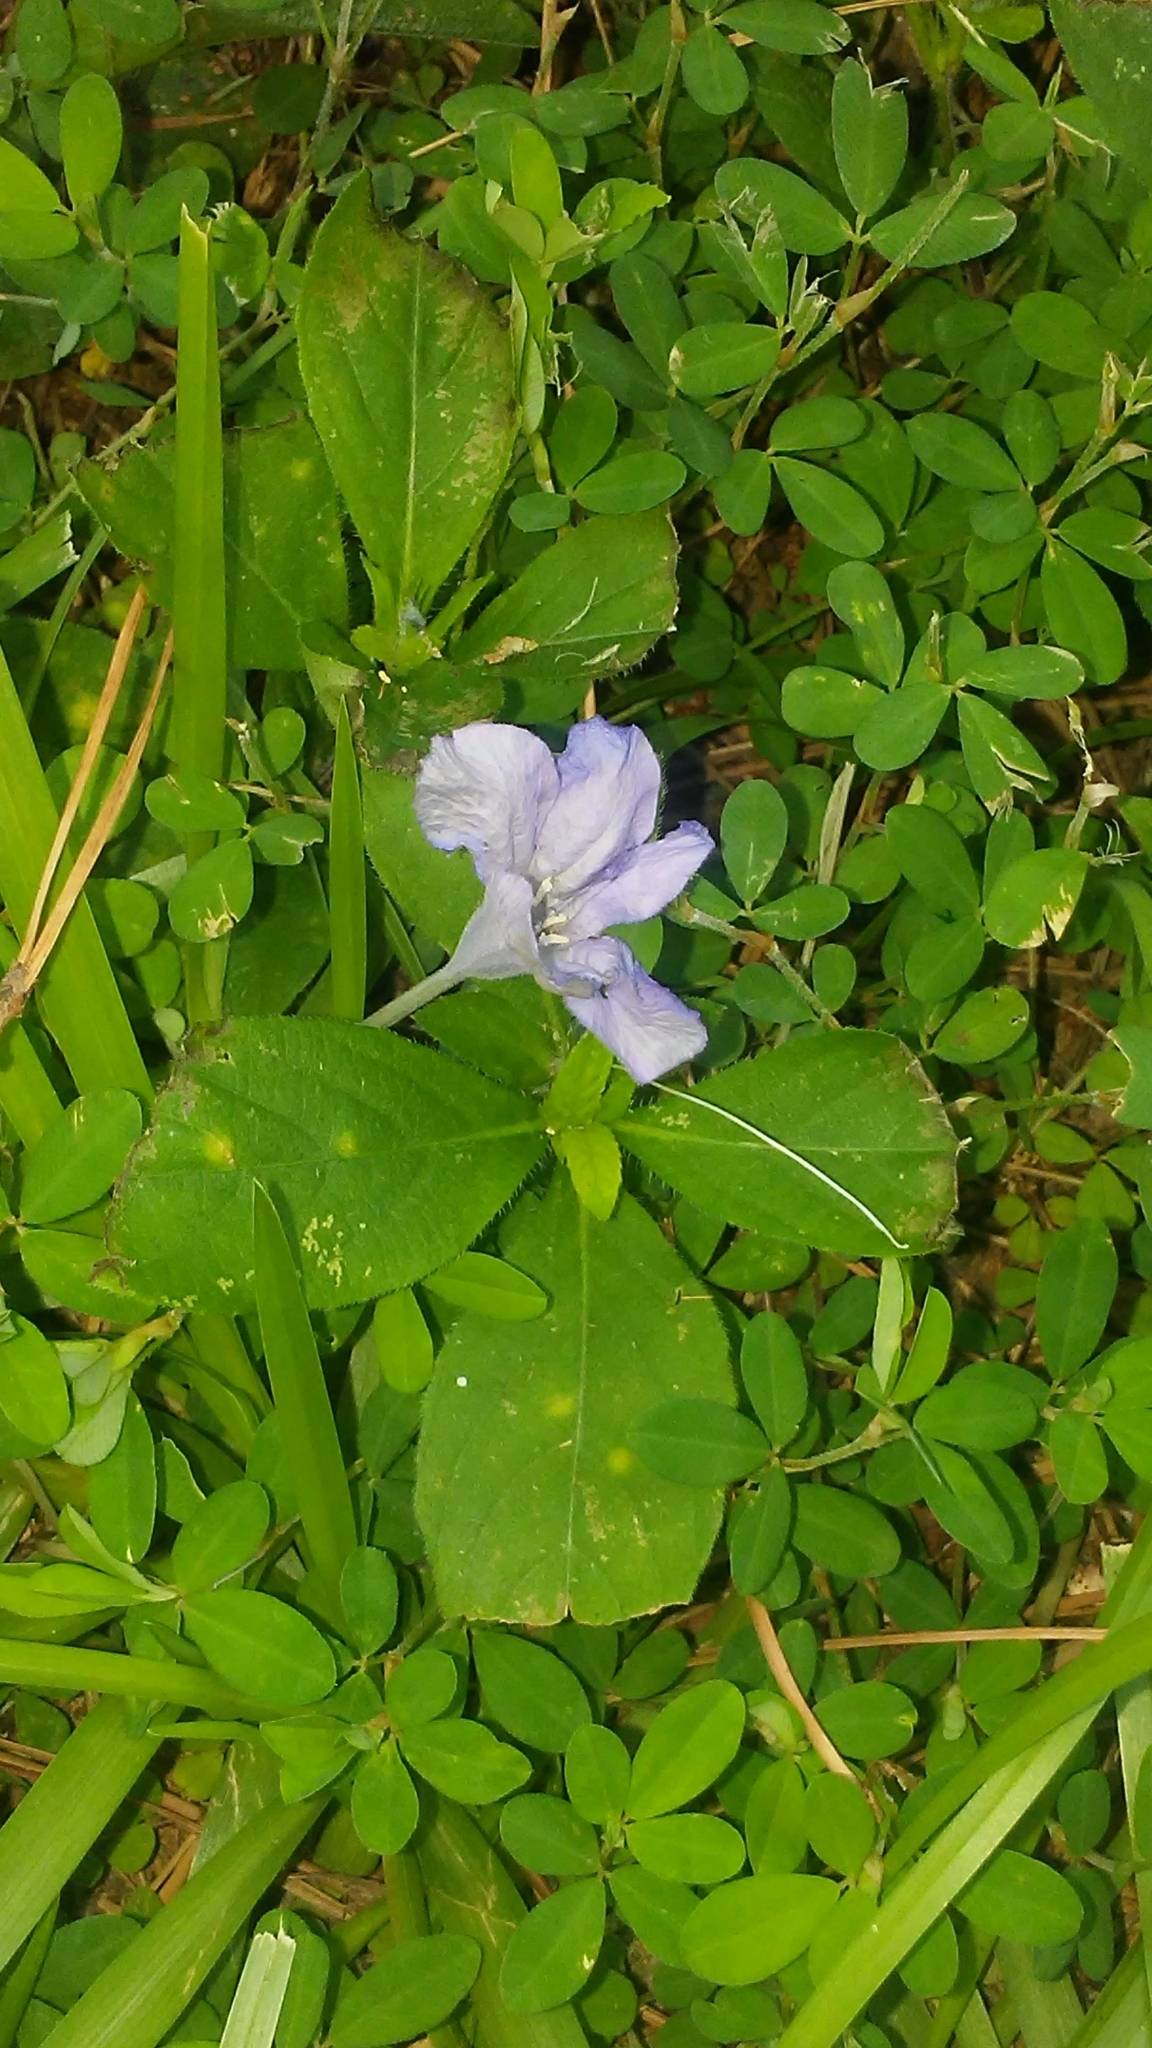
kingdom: Plantae
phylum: Tracheophyta
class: Magnoliopsida
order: Lamiales
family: Acanthaceae
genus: Ruellia
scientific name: Ruellia caroliniensis
